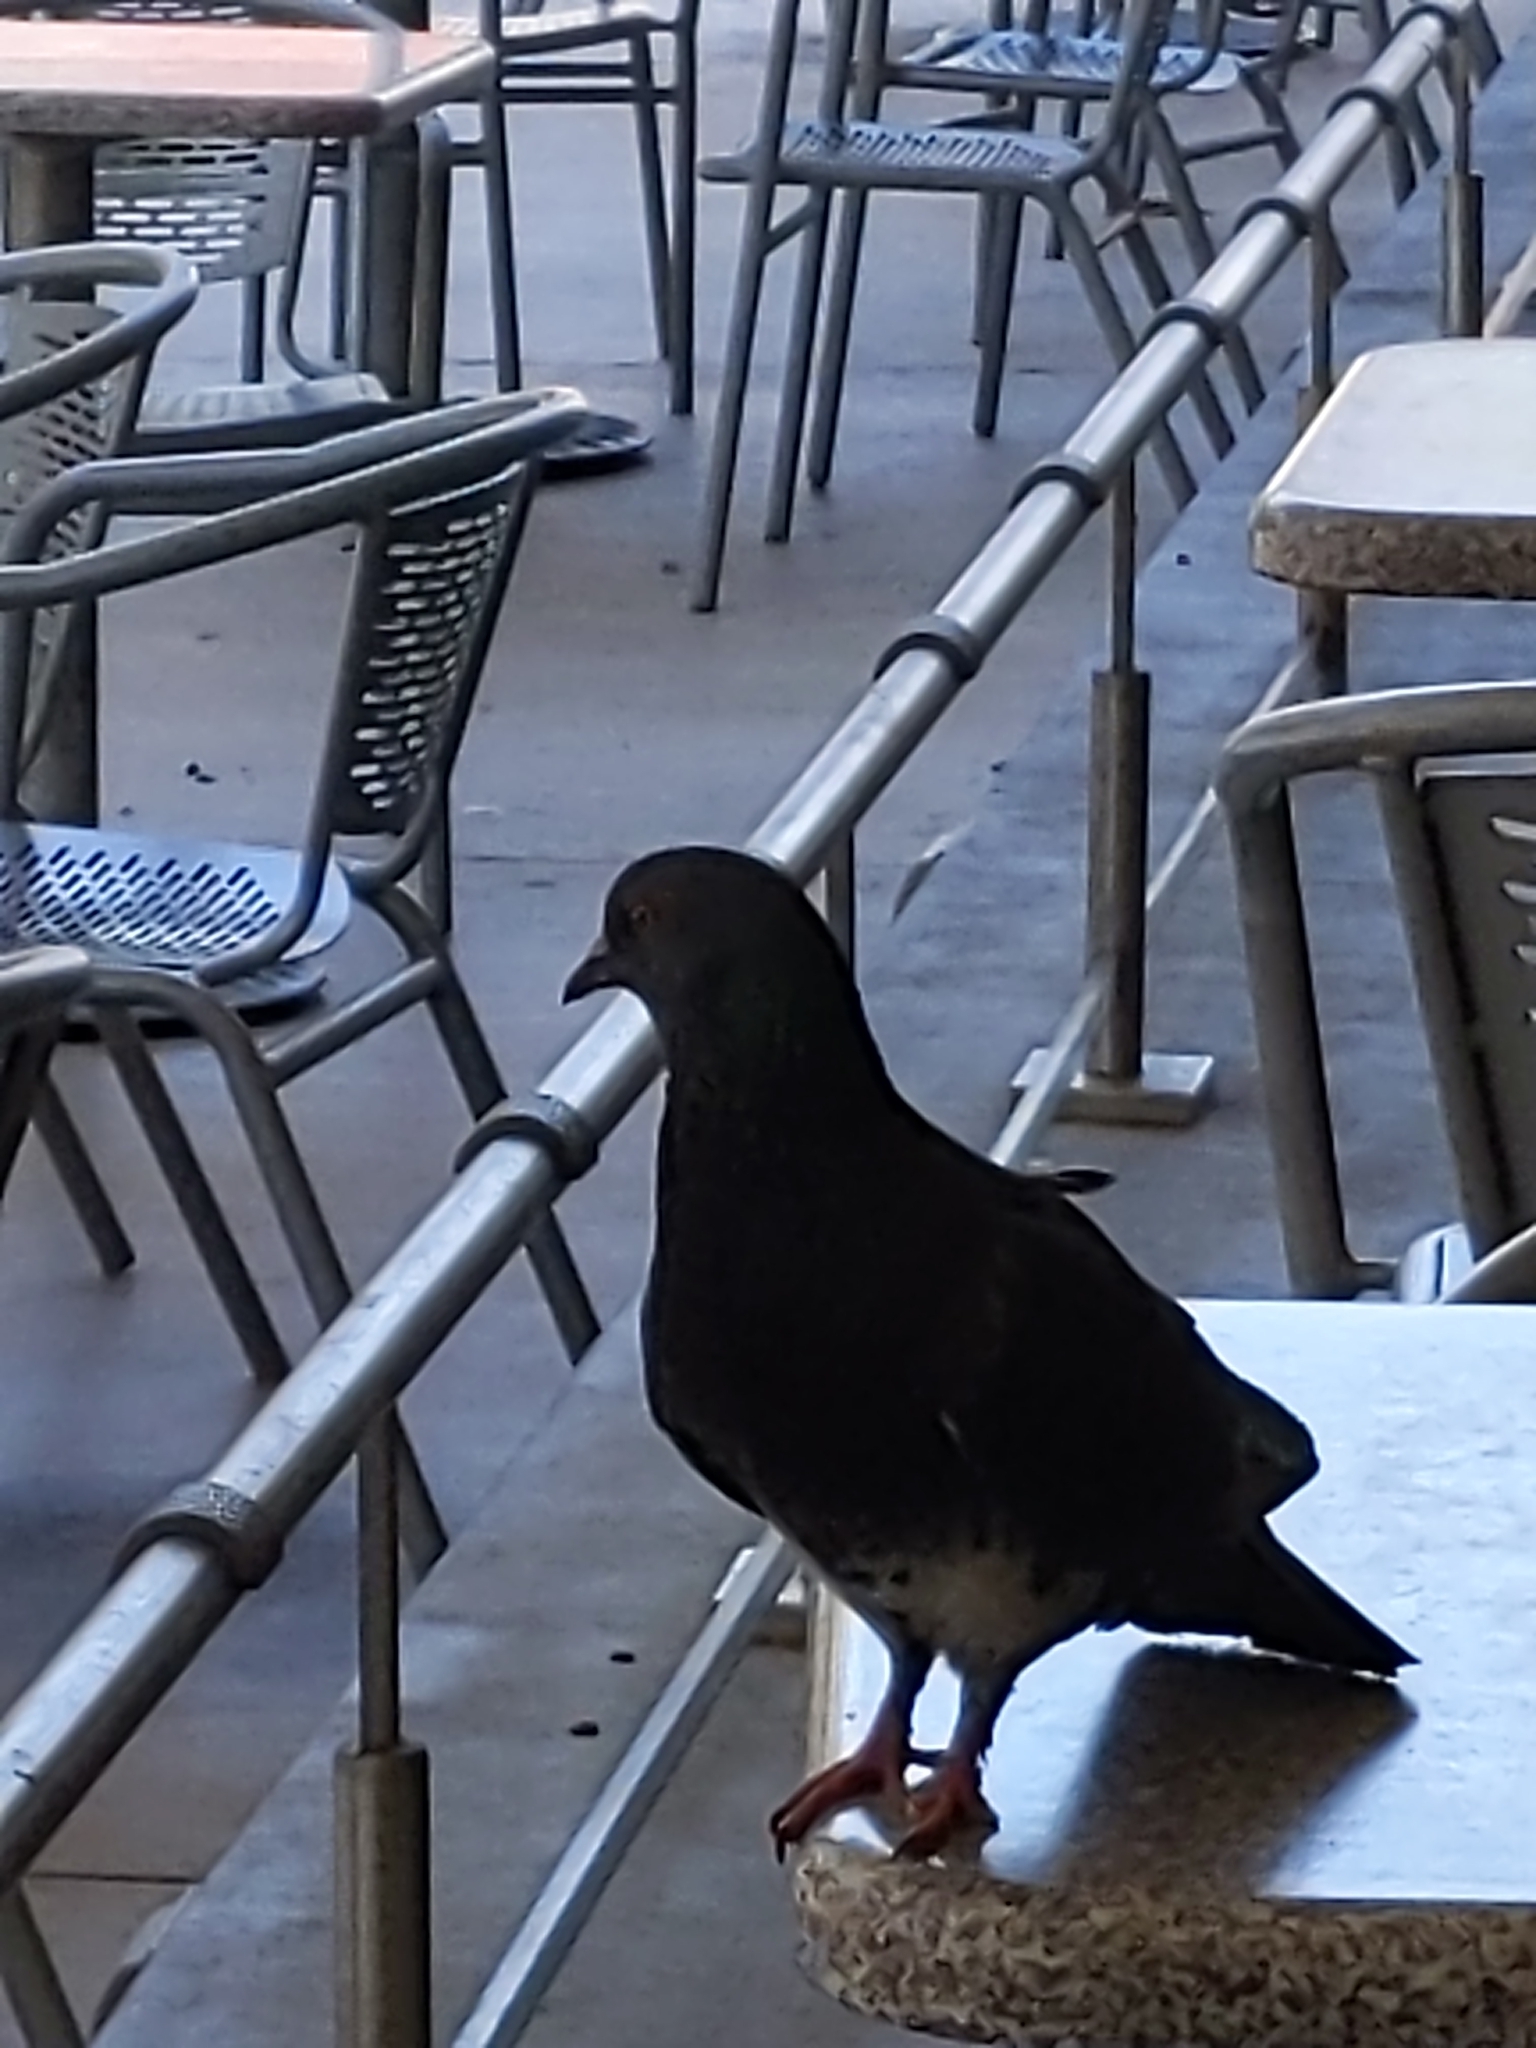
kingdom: Animalia
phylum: Chordata
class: Aves
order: Columbiformes
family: Columbidae
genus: Columba
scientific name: Columba livia
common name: Rock pigeon
